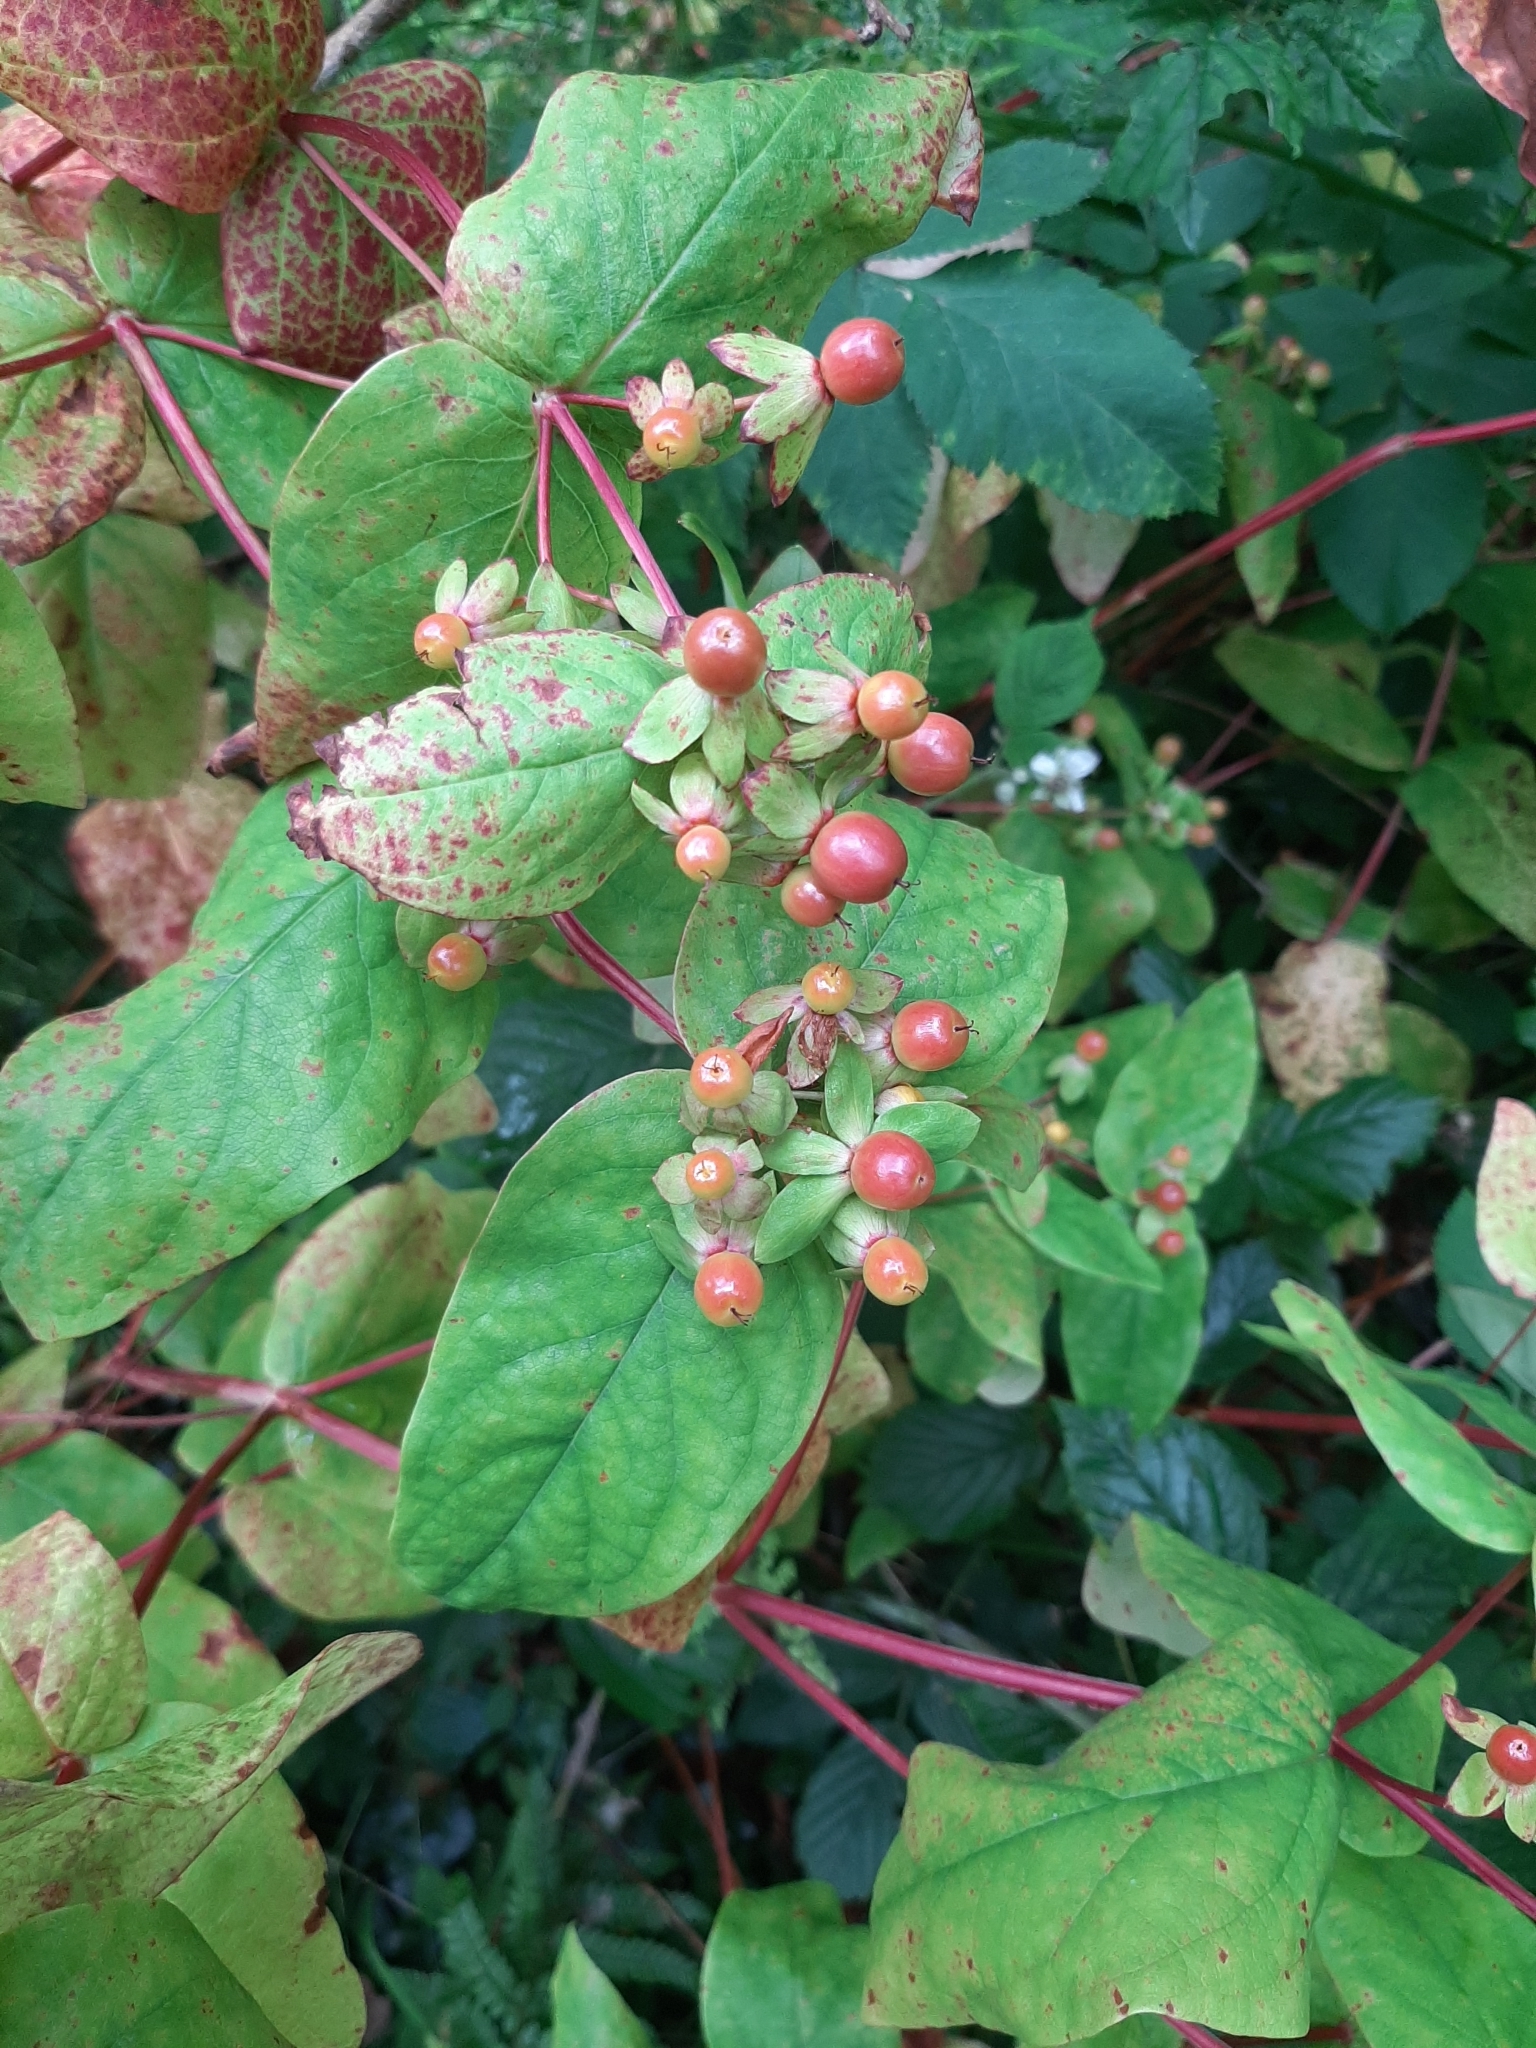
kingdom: Plantae
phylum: Tracheophyta
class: Magnoliopsida
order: Malpighiales
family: Hypericaceae
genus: Hypericum
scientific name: Hypericum androsaemum
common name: Sweet-amber
